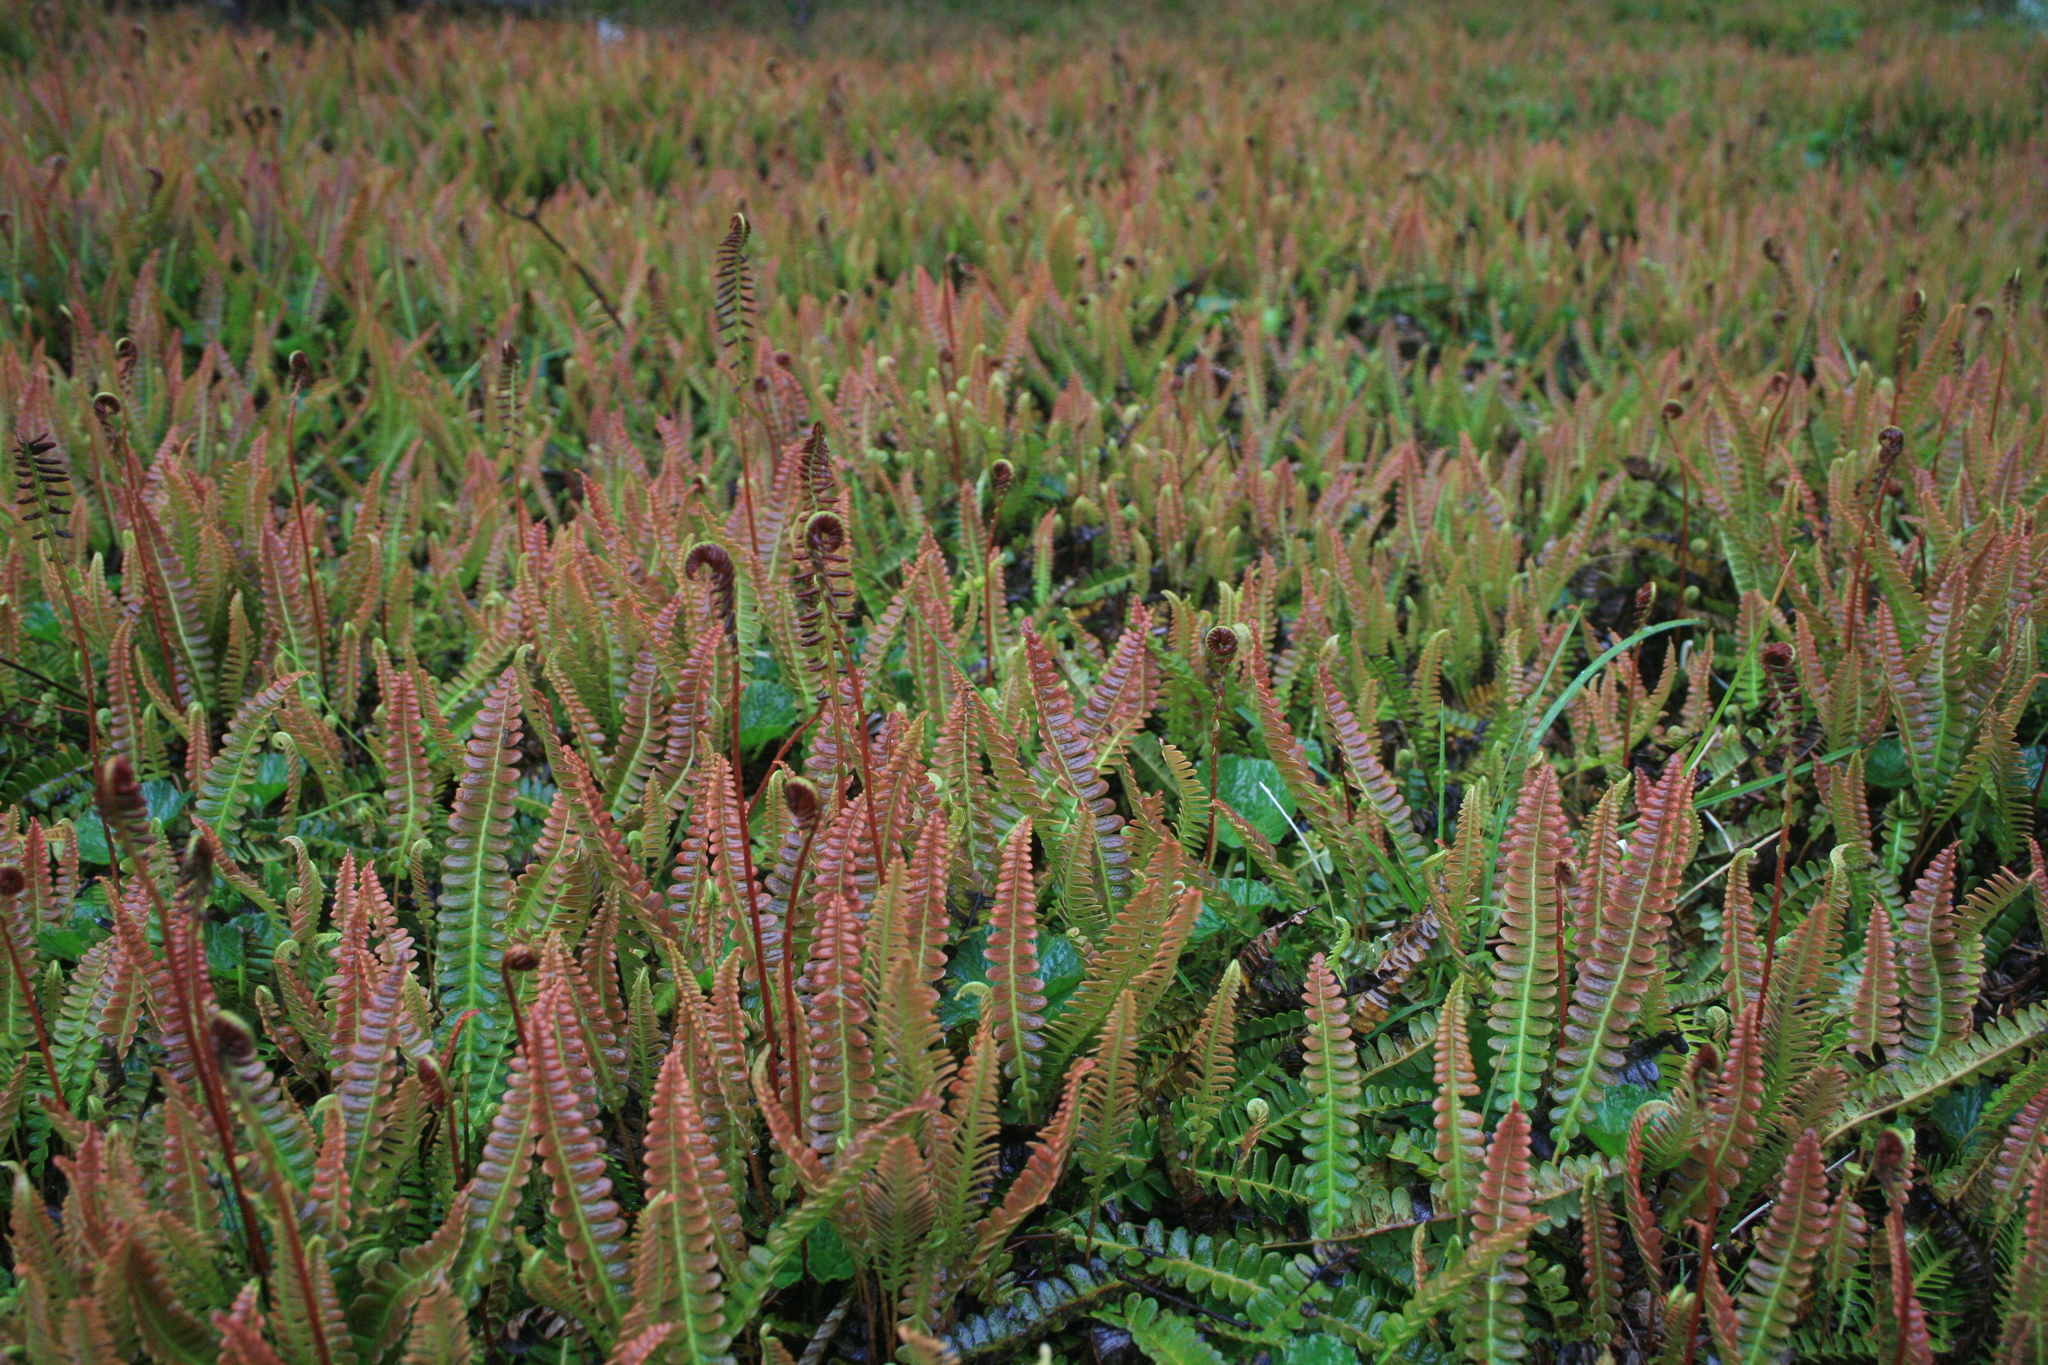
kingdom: Plantae
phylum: Tracheophyta
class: Polypodiopsida
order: Polypodiales
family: Blechnaceae
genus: Austroblechnum
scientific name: Austroblechnum penna-marina
